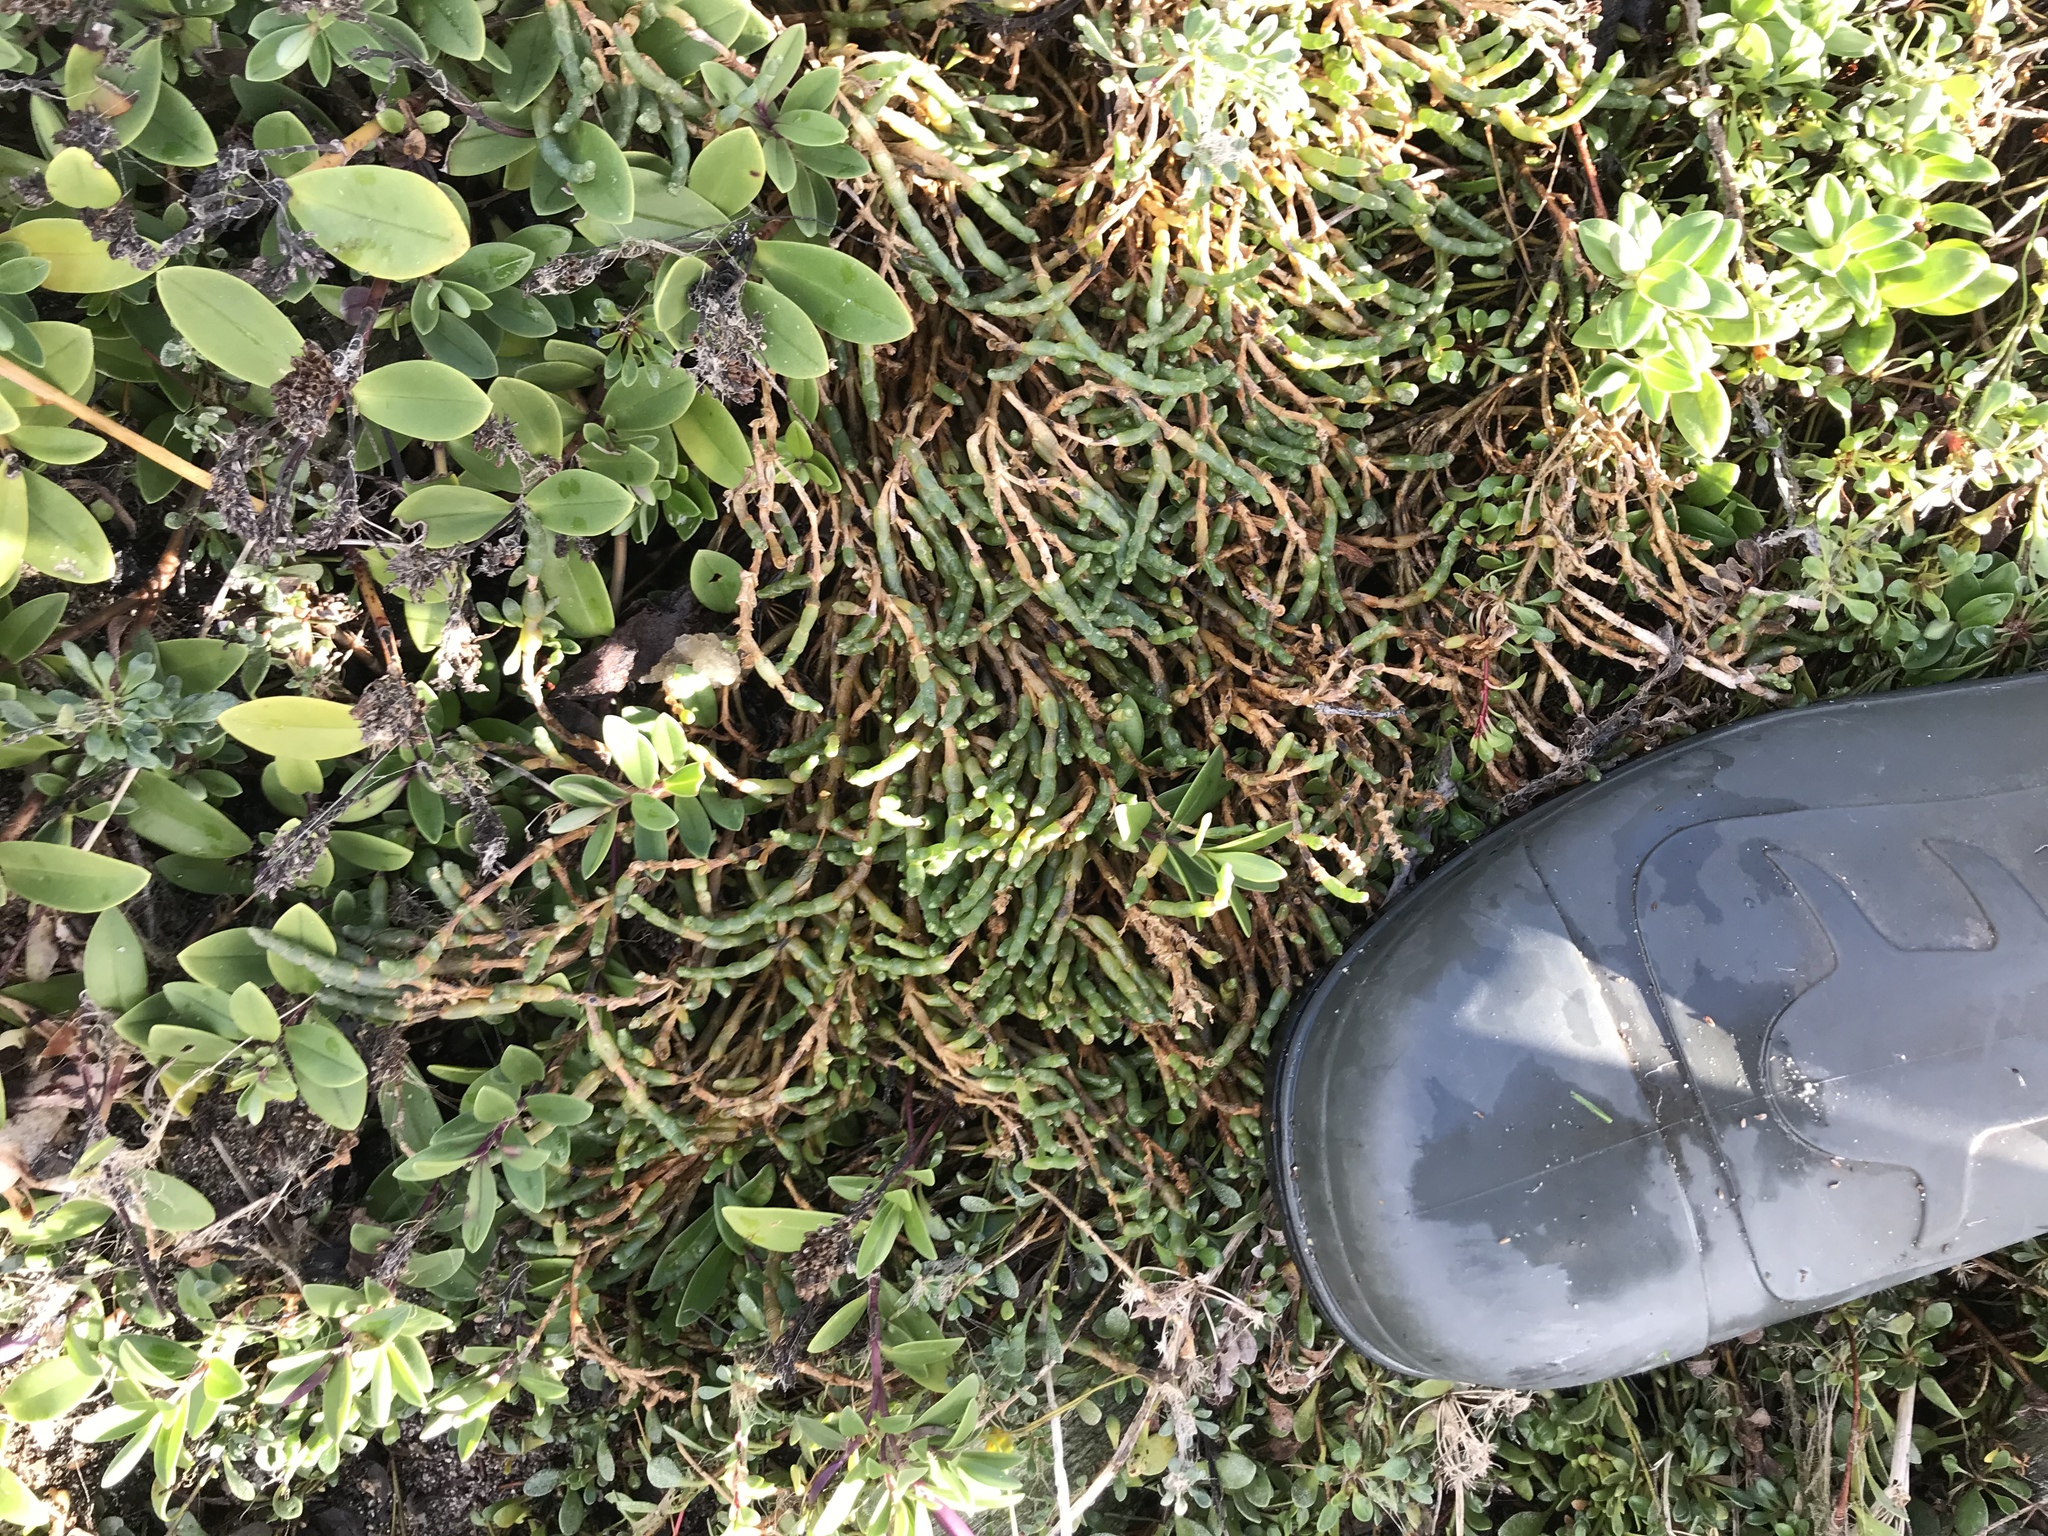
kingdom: Plantae
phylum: Tracheophyta
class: Magnoliopsida
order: Caryophyllales
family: Amaranthaceae
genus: Salicornia
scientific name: Salicornia quinqueflora
